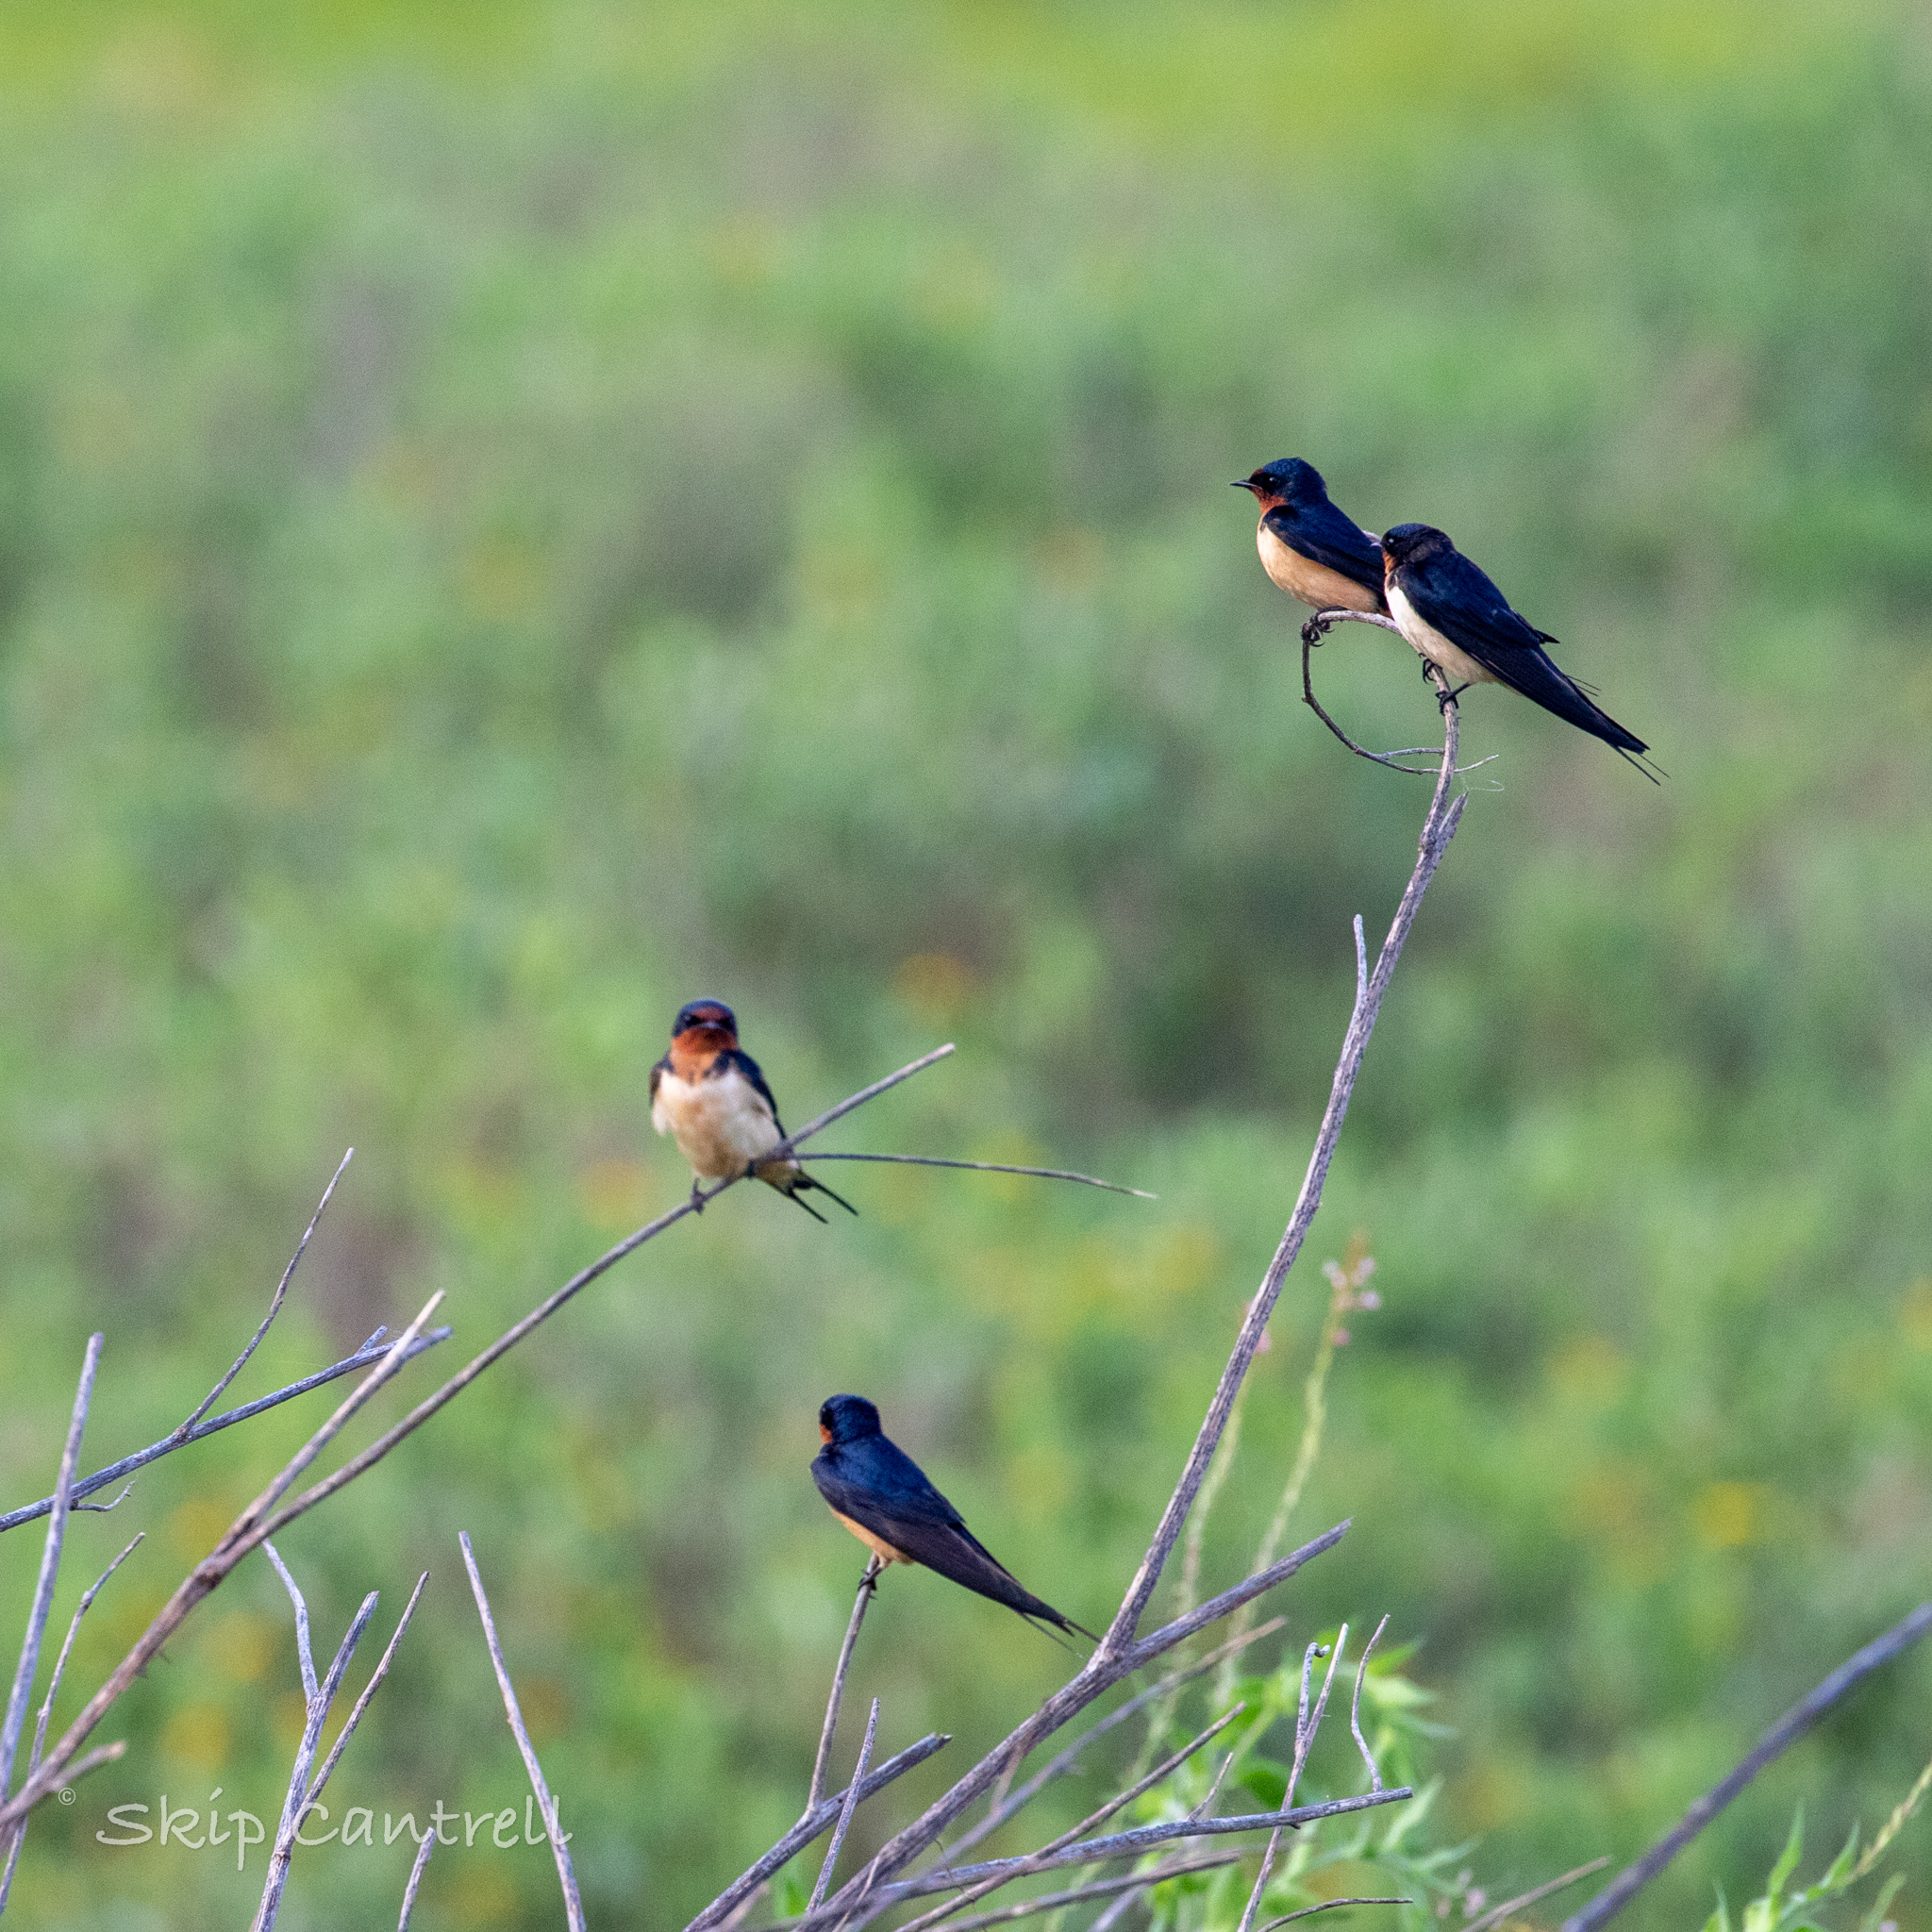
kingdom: Animalia
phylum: Chordata
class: Aves
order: Passeriformes
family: Hirundinidae
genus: Hirundo
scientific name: Hirundo rustica
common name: Barn swallow
